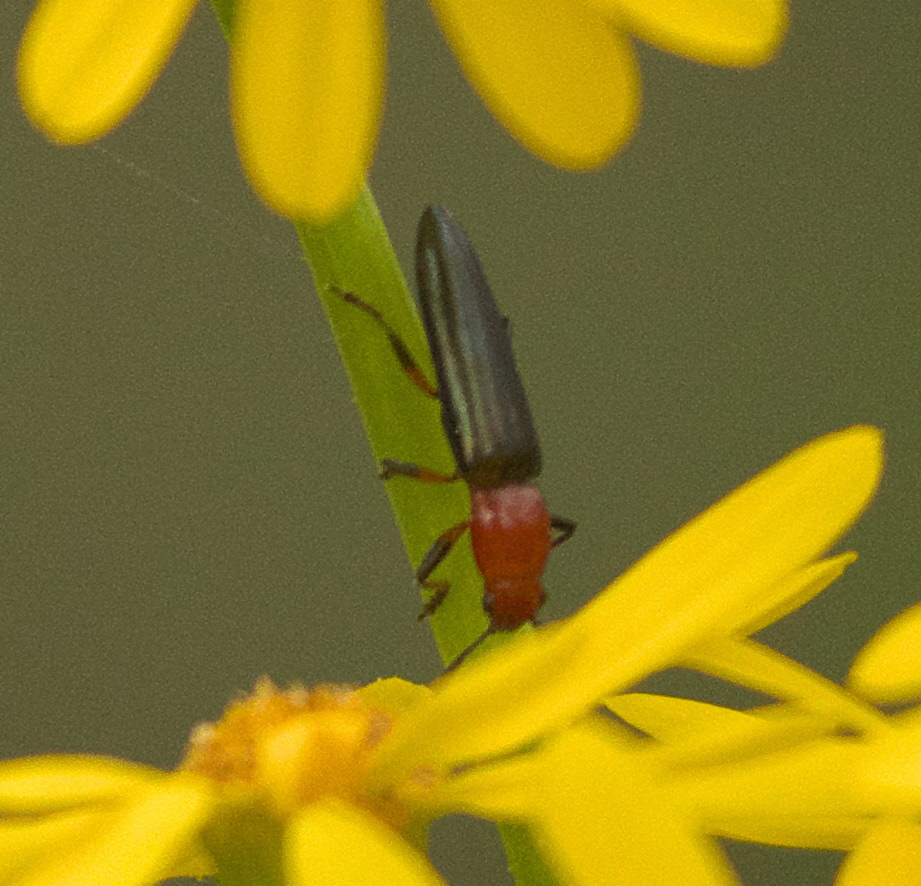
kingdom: Animalia
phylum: Arthropoda
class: Insecta
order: Coleoptera
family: Erotylidae
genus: Languria
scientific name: Languria mozardi
